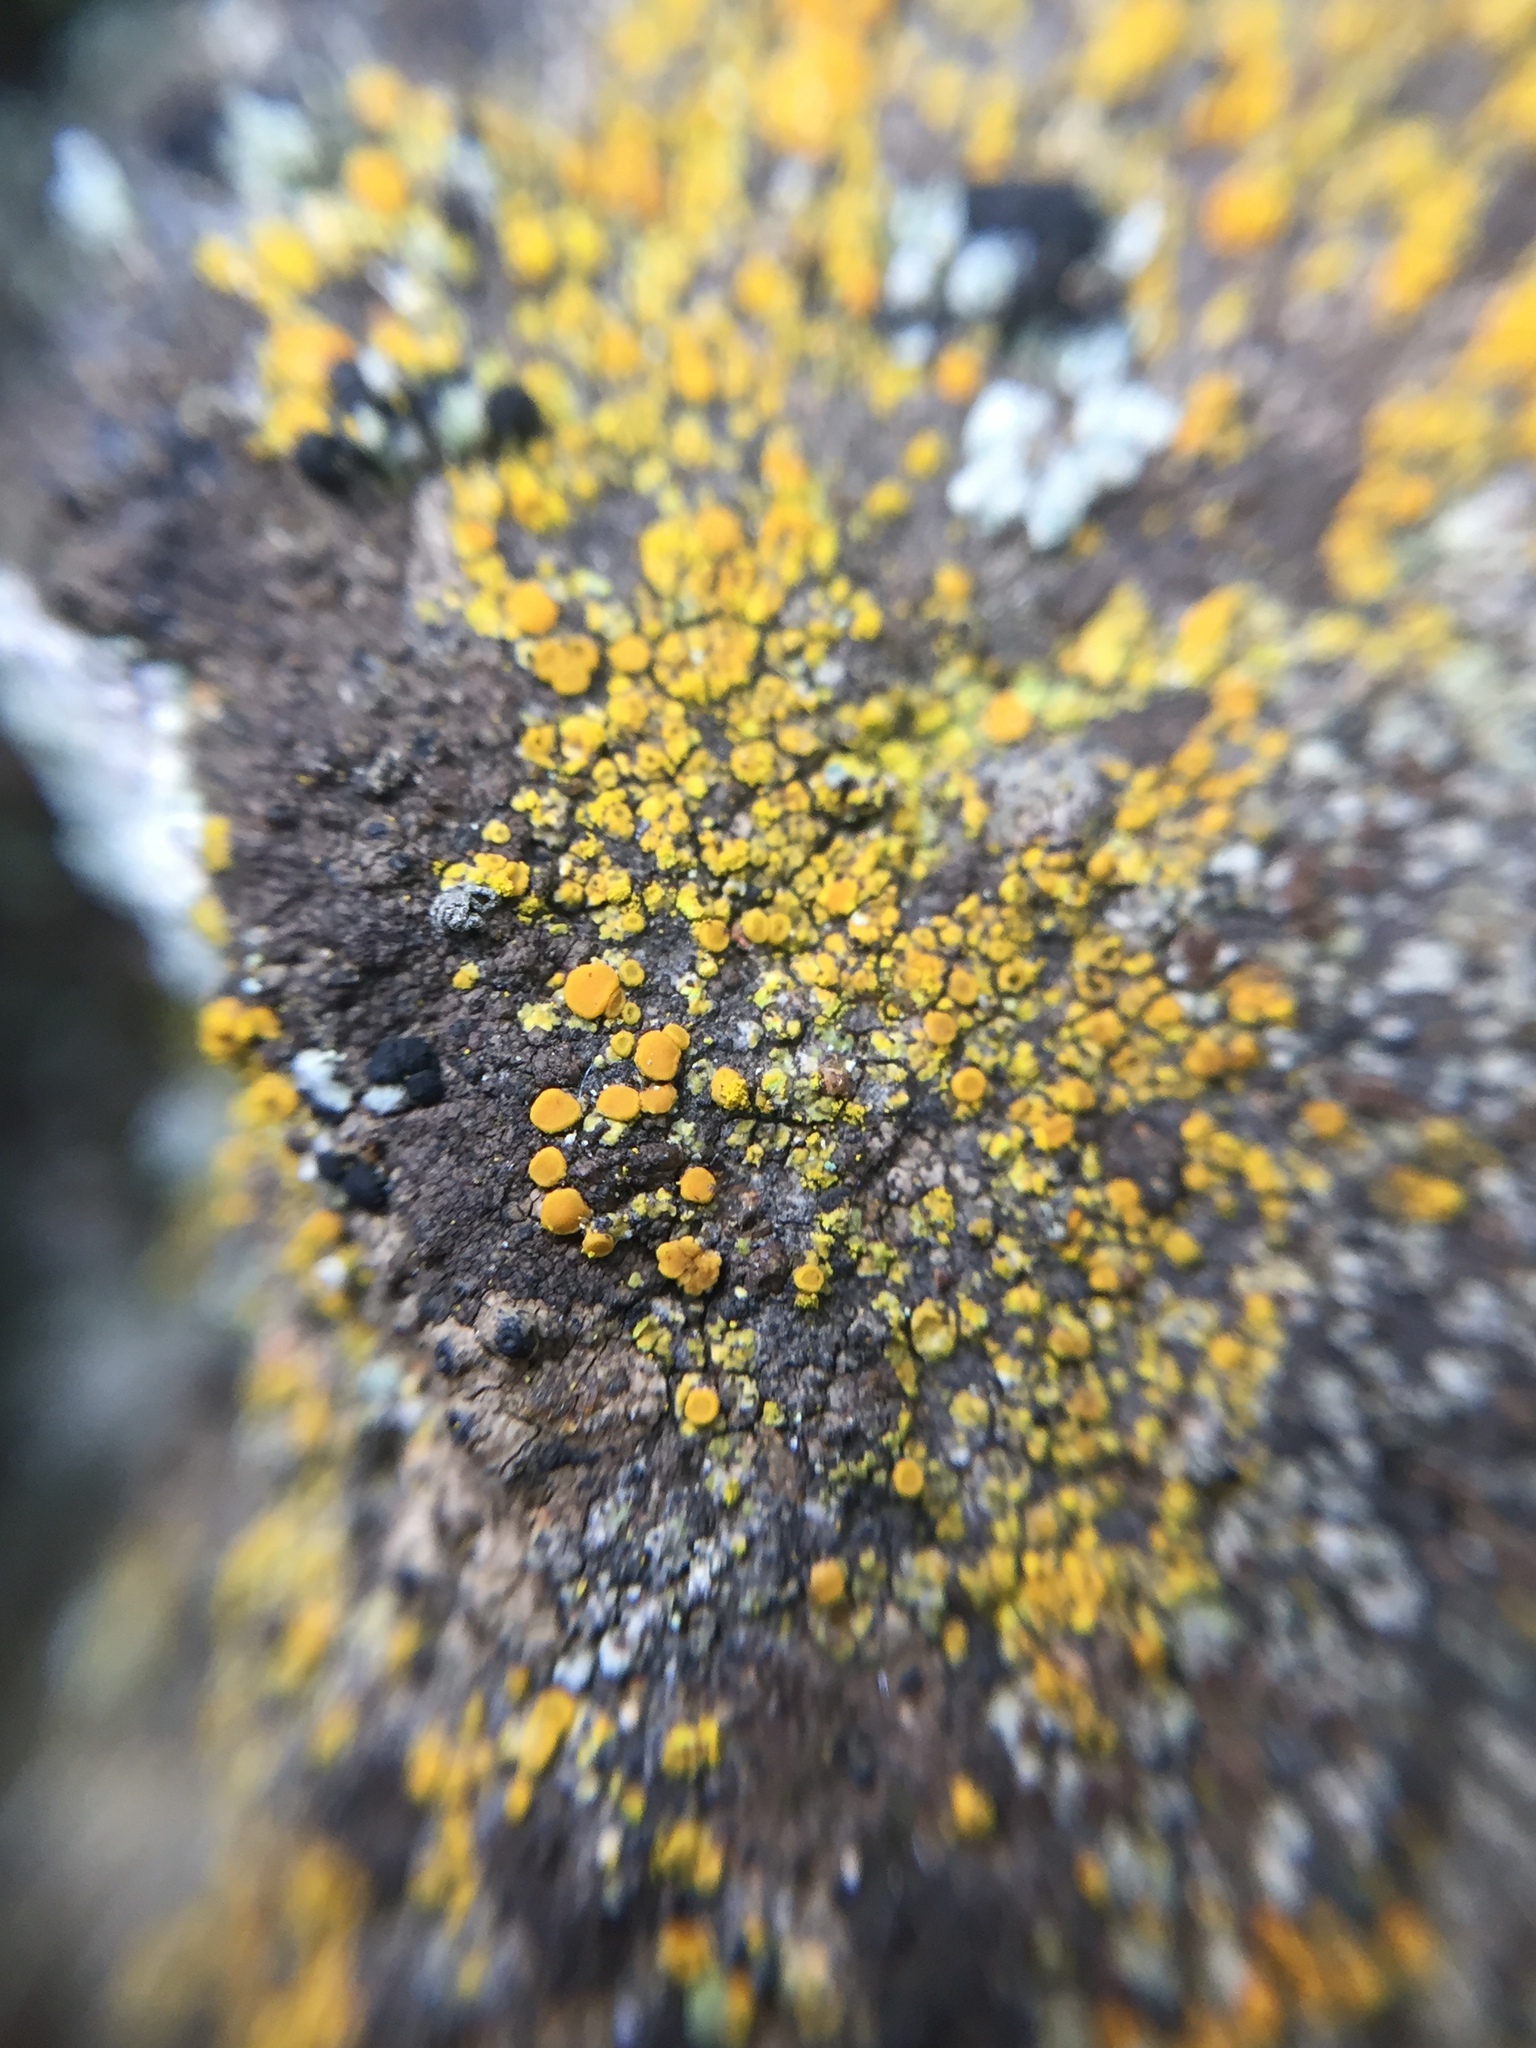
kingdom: Fungi
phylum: Ascomycota
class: Candelariomycetes
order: Candelariales
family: Candelariaceae
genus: Candelariella
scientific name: Candelariella vitellina
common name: Common goldspeck
